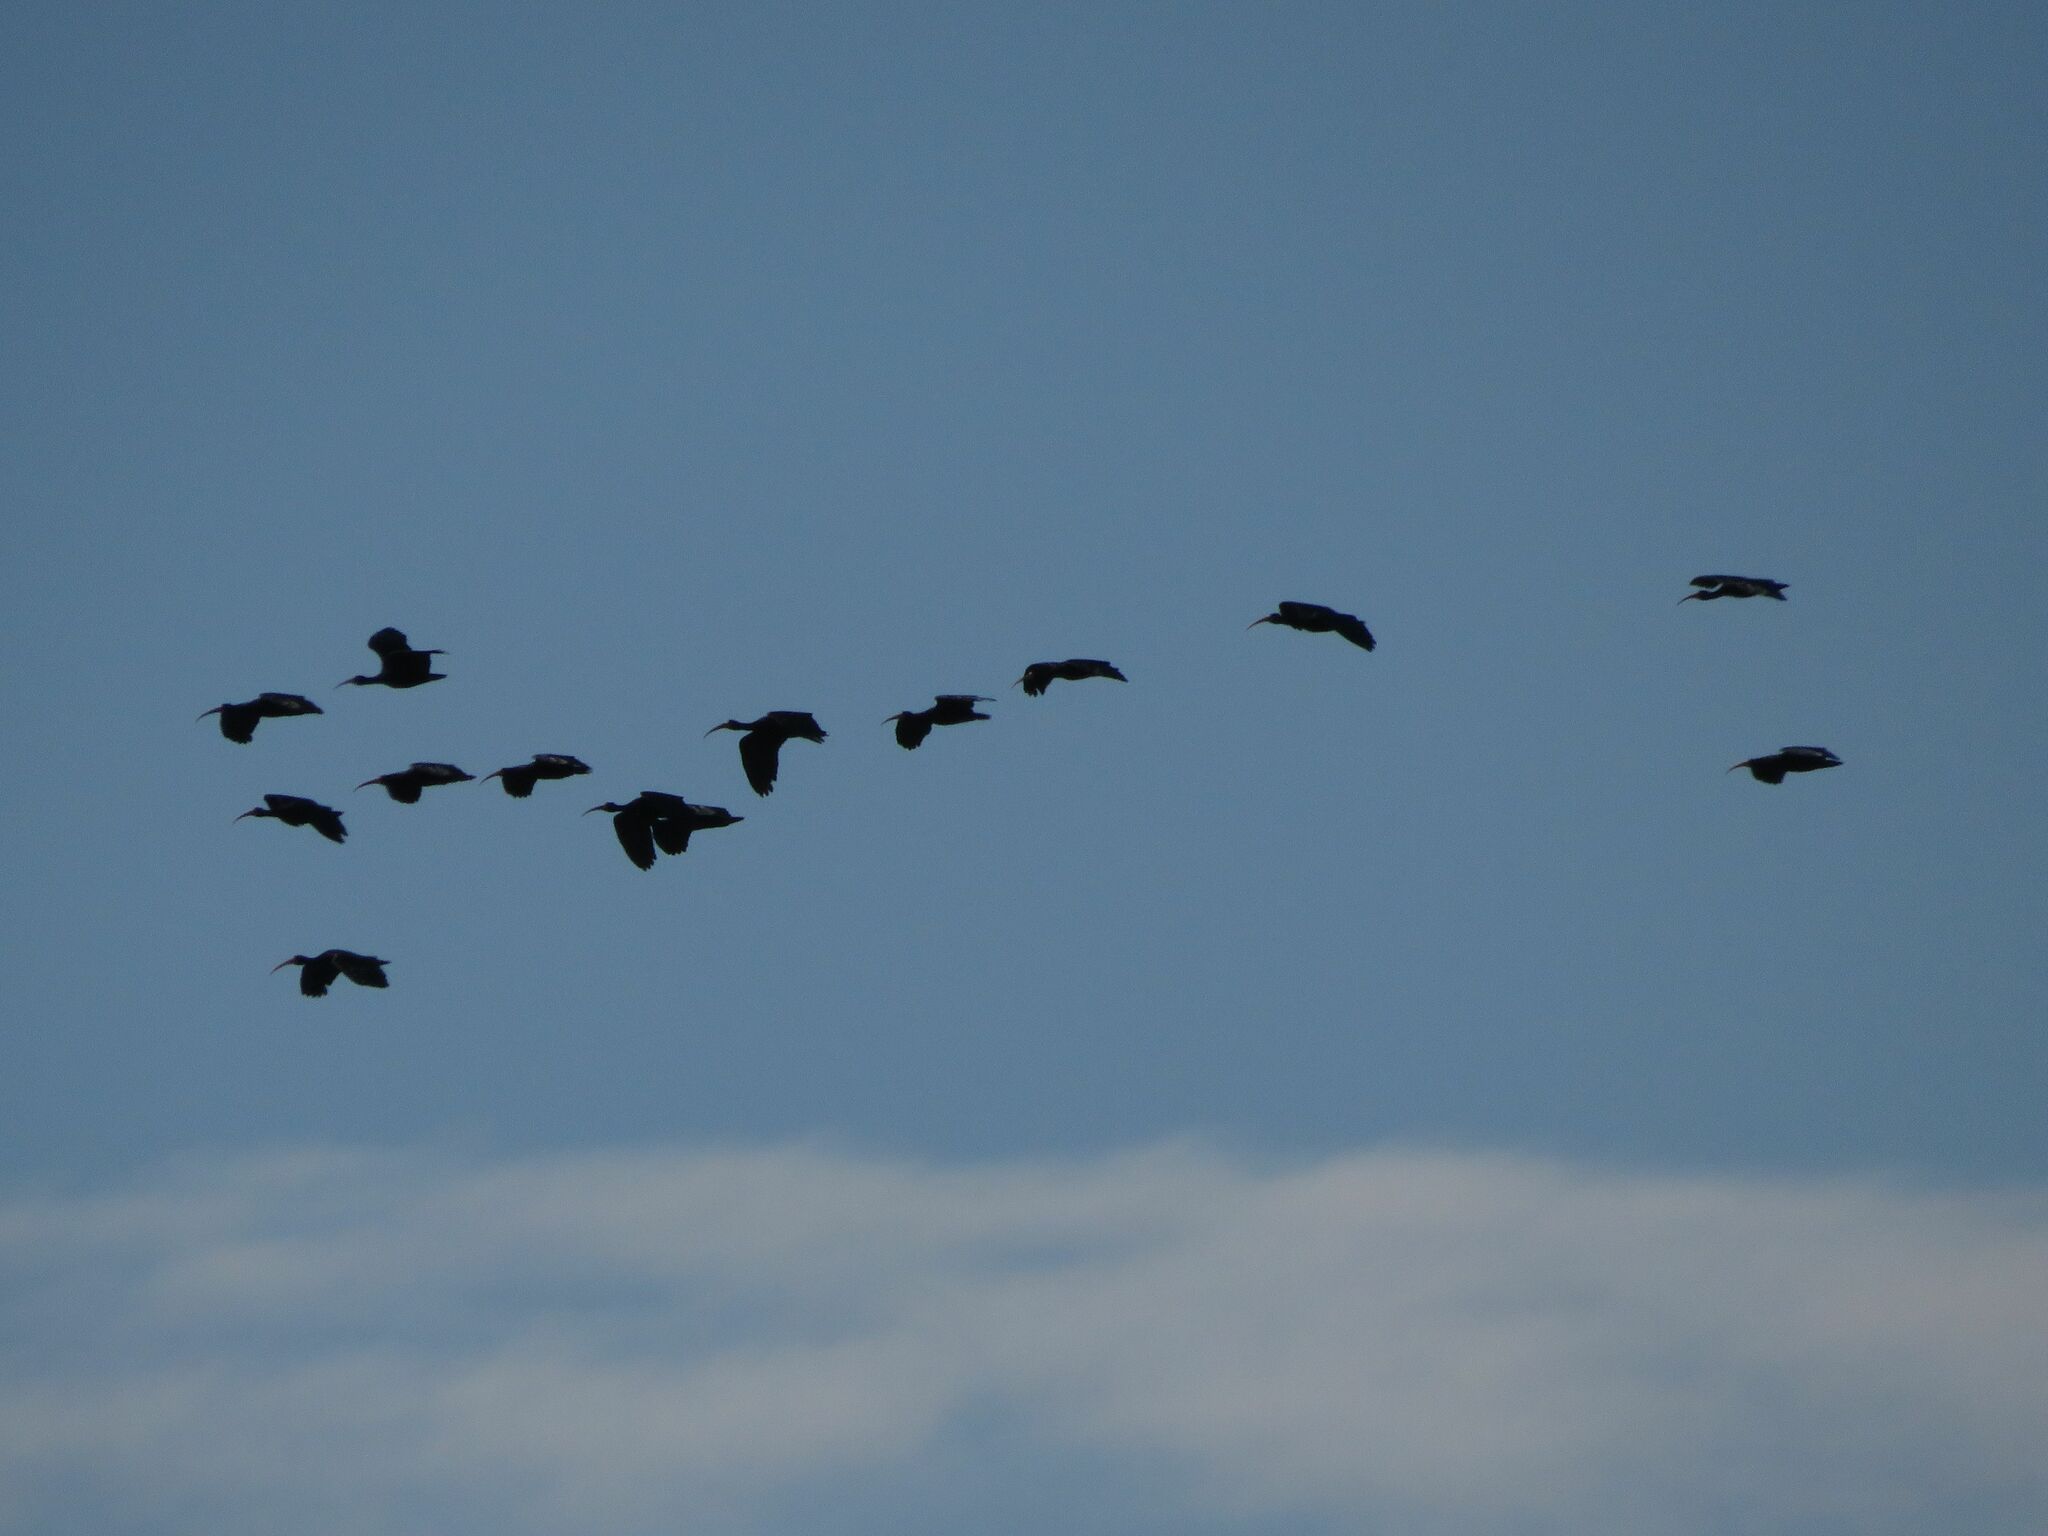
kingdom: Animalia
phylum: Chordata
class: Aves
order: Pelecaniformes
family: Threskiornithidae
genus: Phimosus
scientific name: Phimosus infuscatus
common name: Bare-faced ibis
